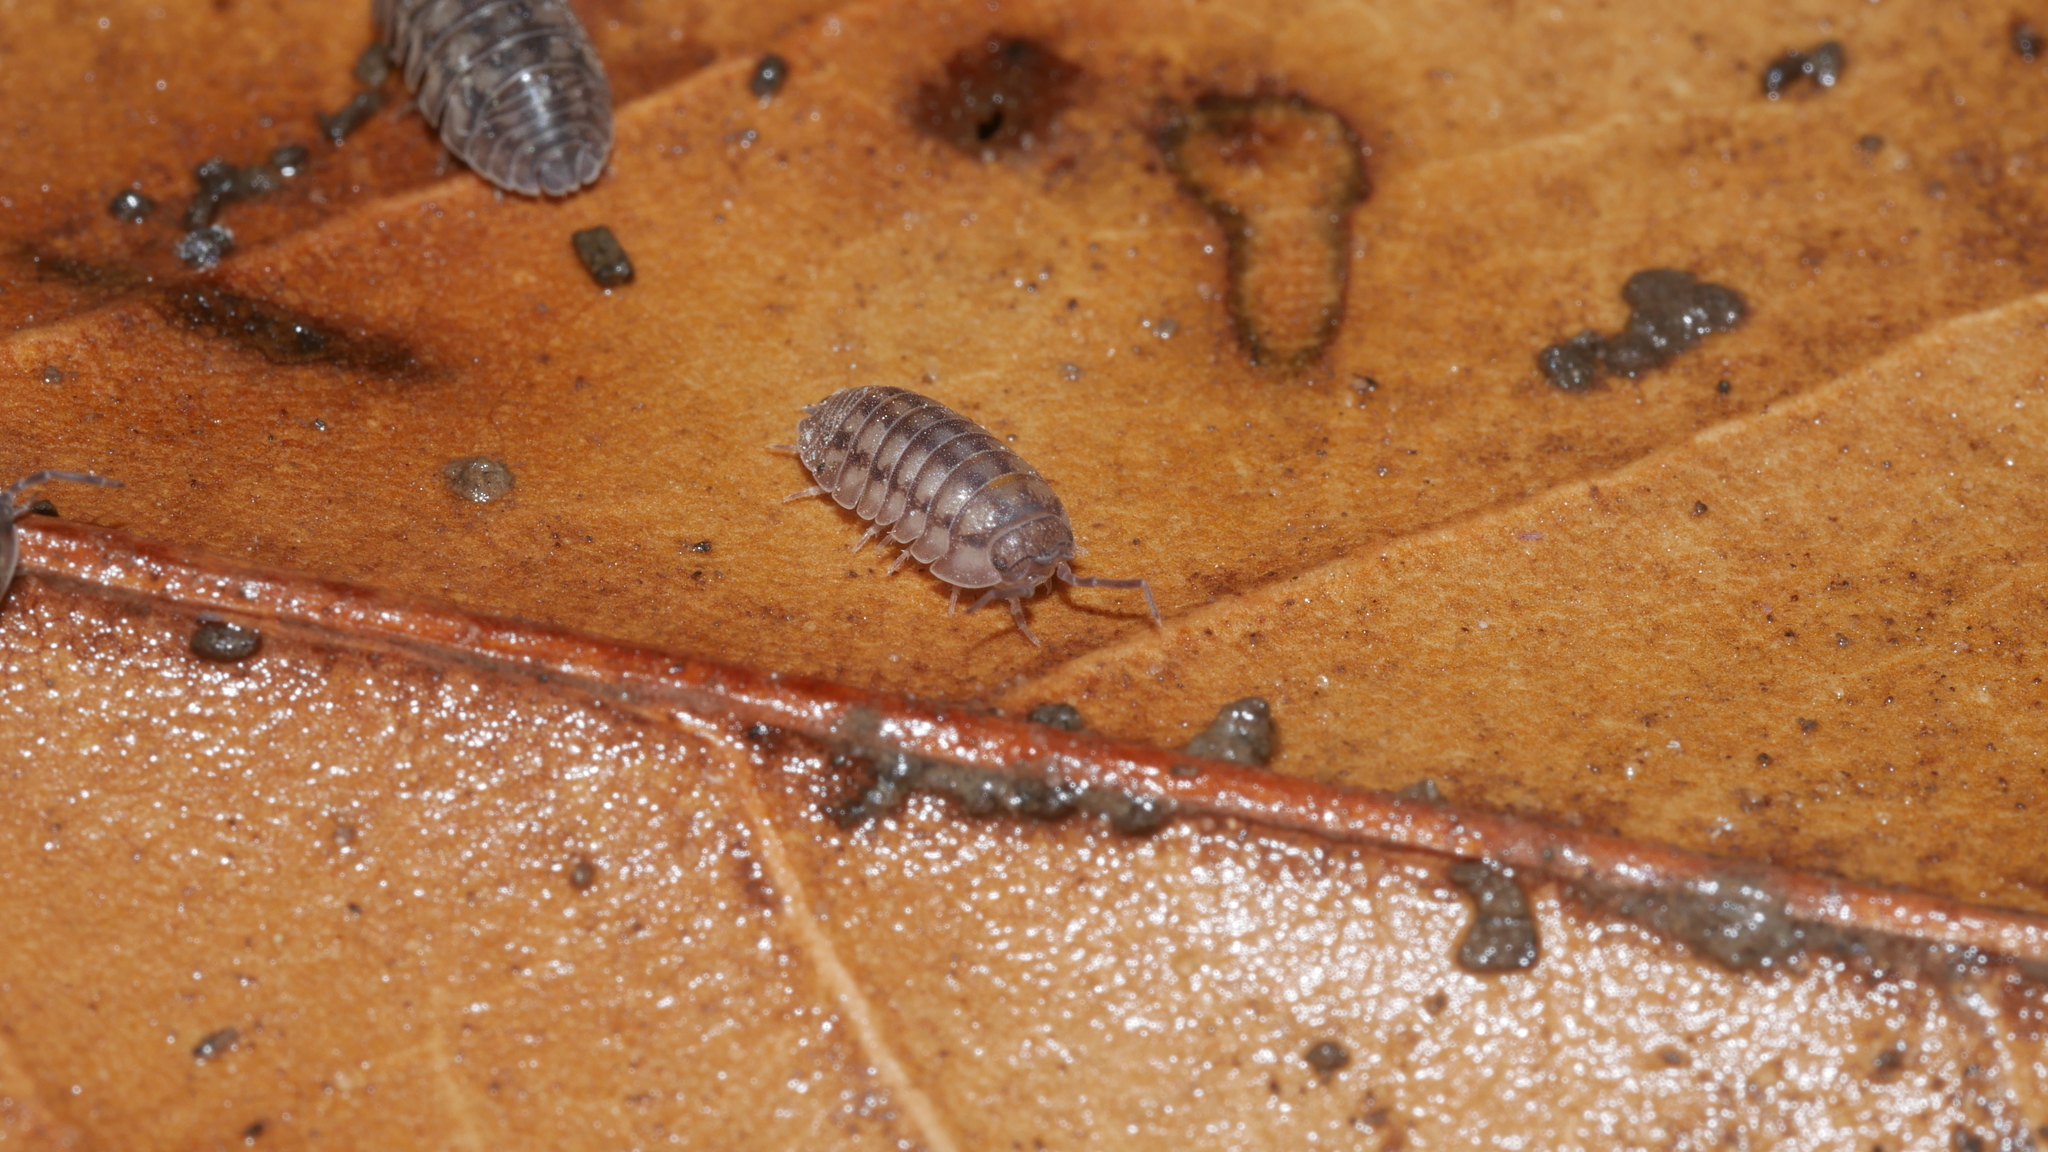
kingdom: Animalia
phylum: Arthropoda
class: Malacostraca
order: Isopoda
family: Armadillidiidae
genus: Armadillidium
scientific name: Armadillidium nasatum
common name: Isopod
